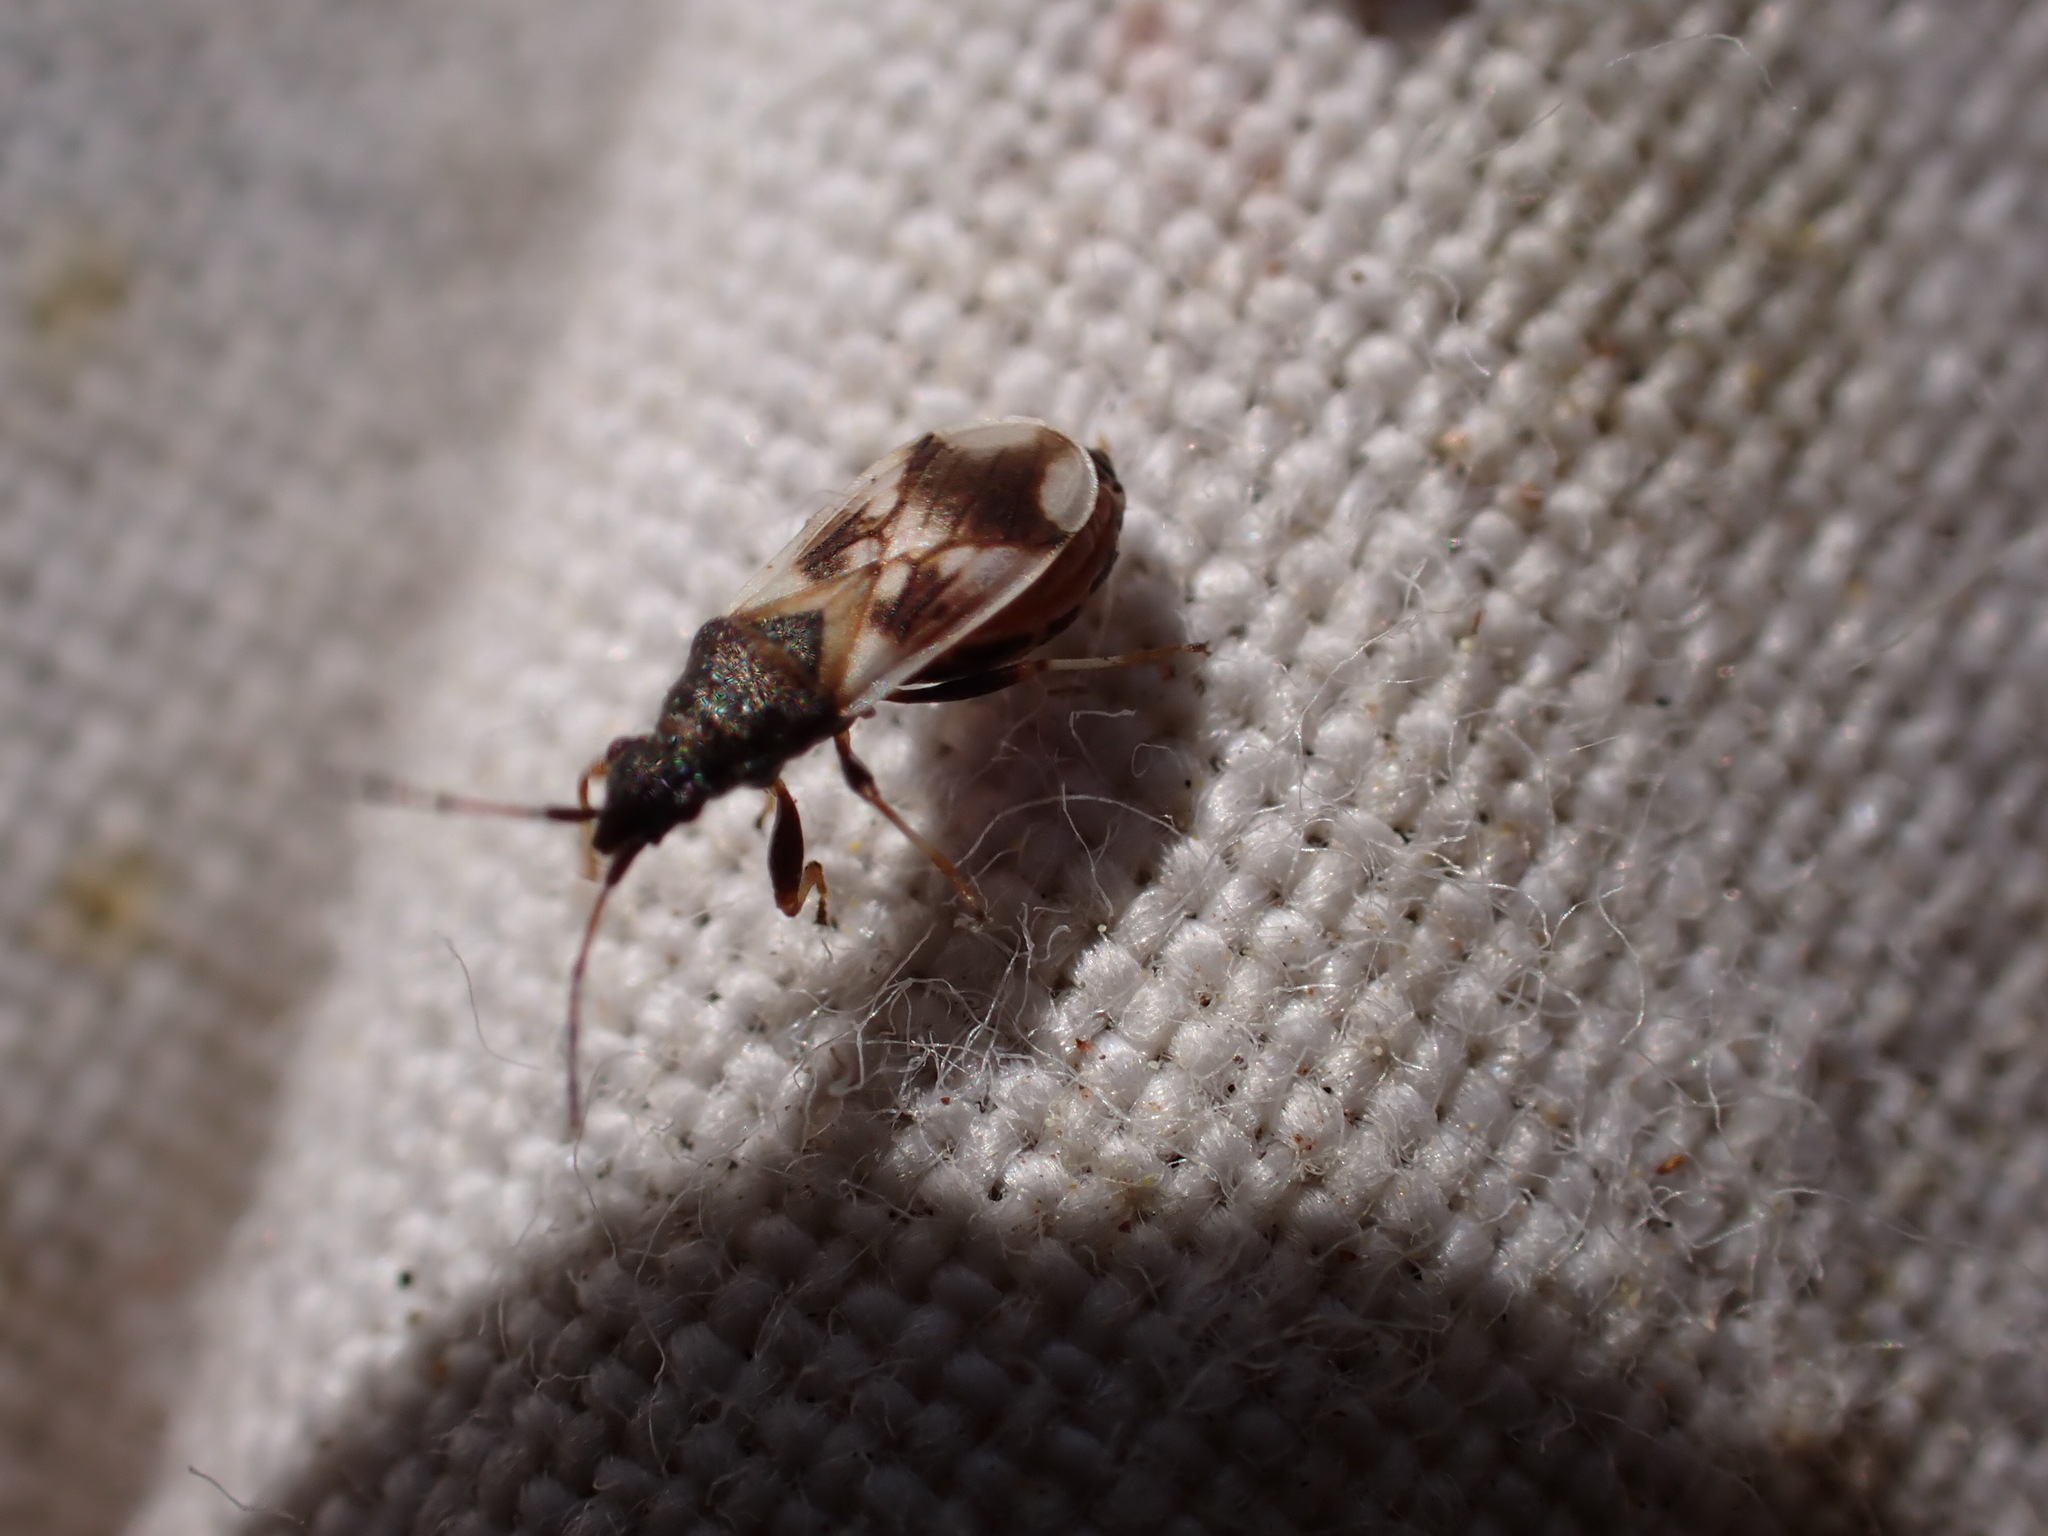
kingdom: Animalia
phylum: Arthropoda
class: Insecta
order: Hemiptera
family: Oxycarenidae
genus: Macroplax
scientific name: Macroplax fasciata
